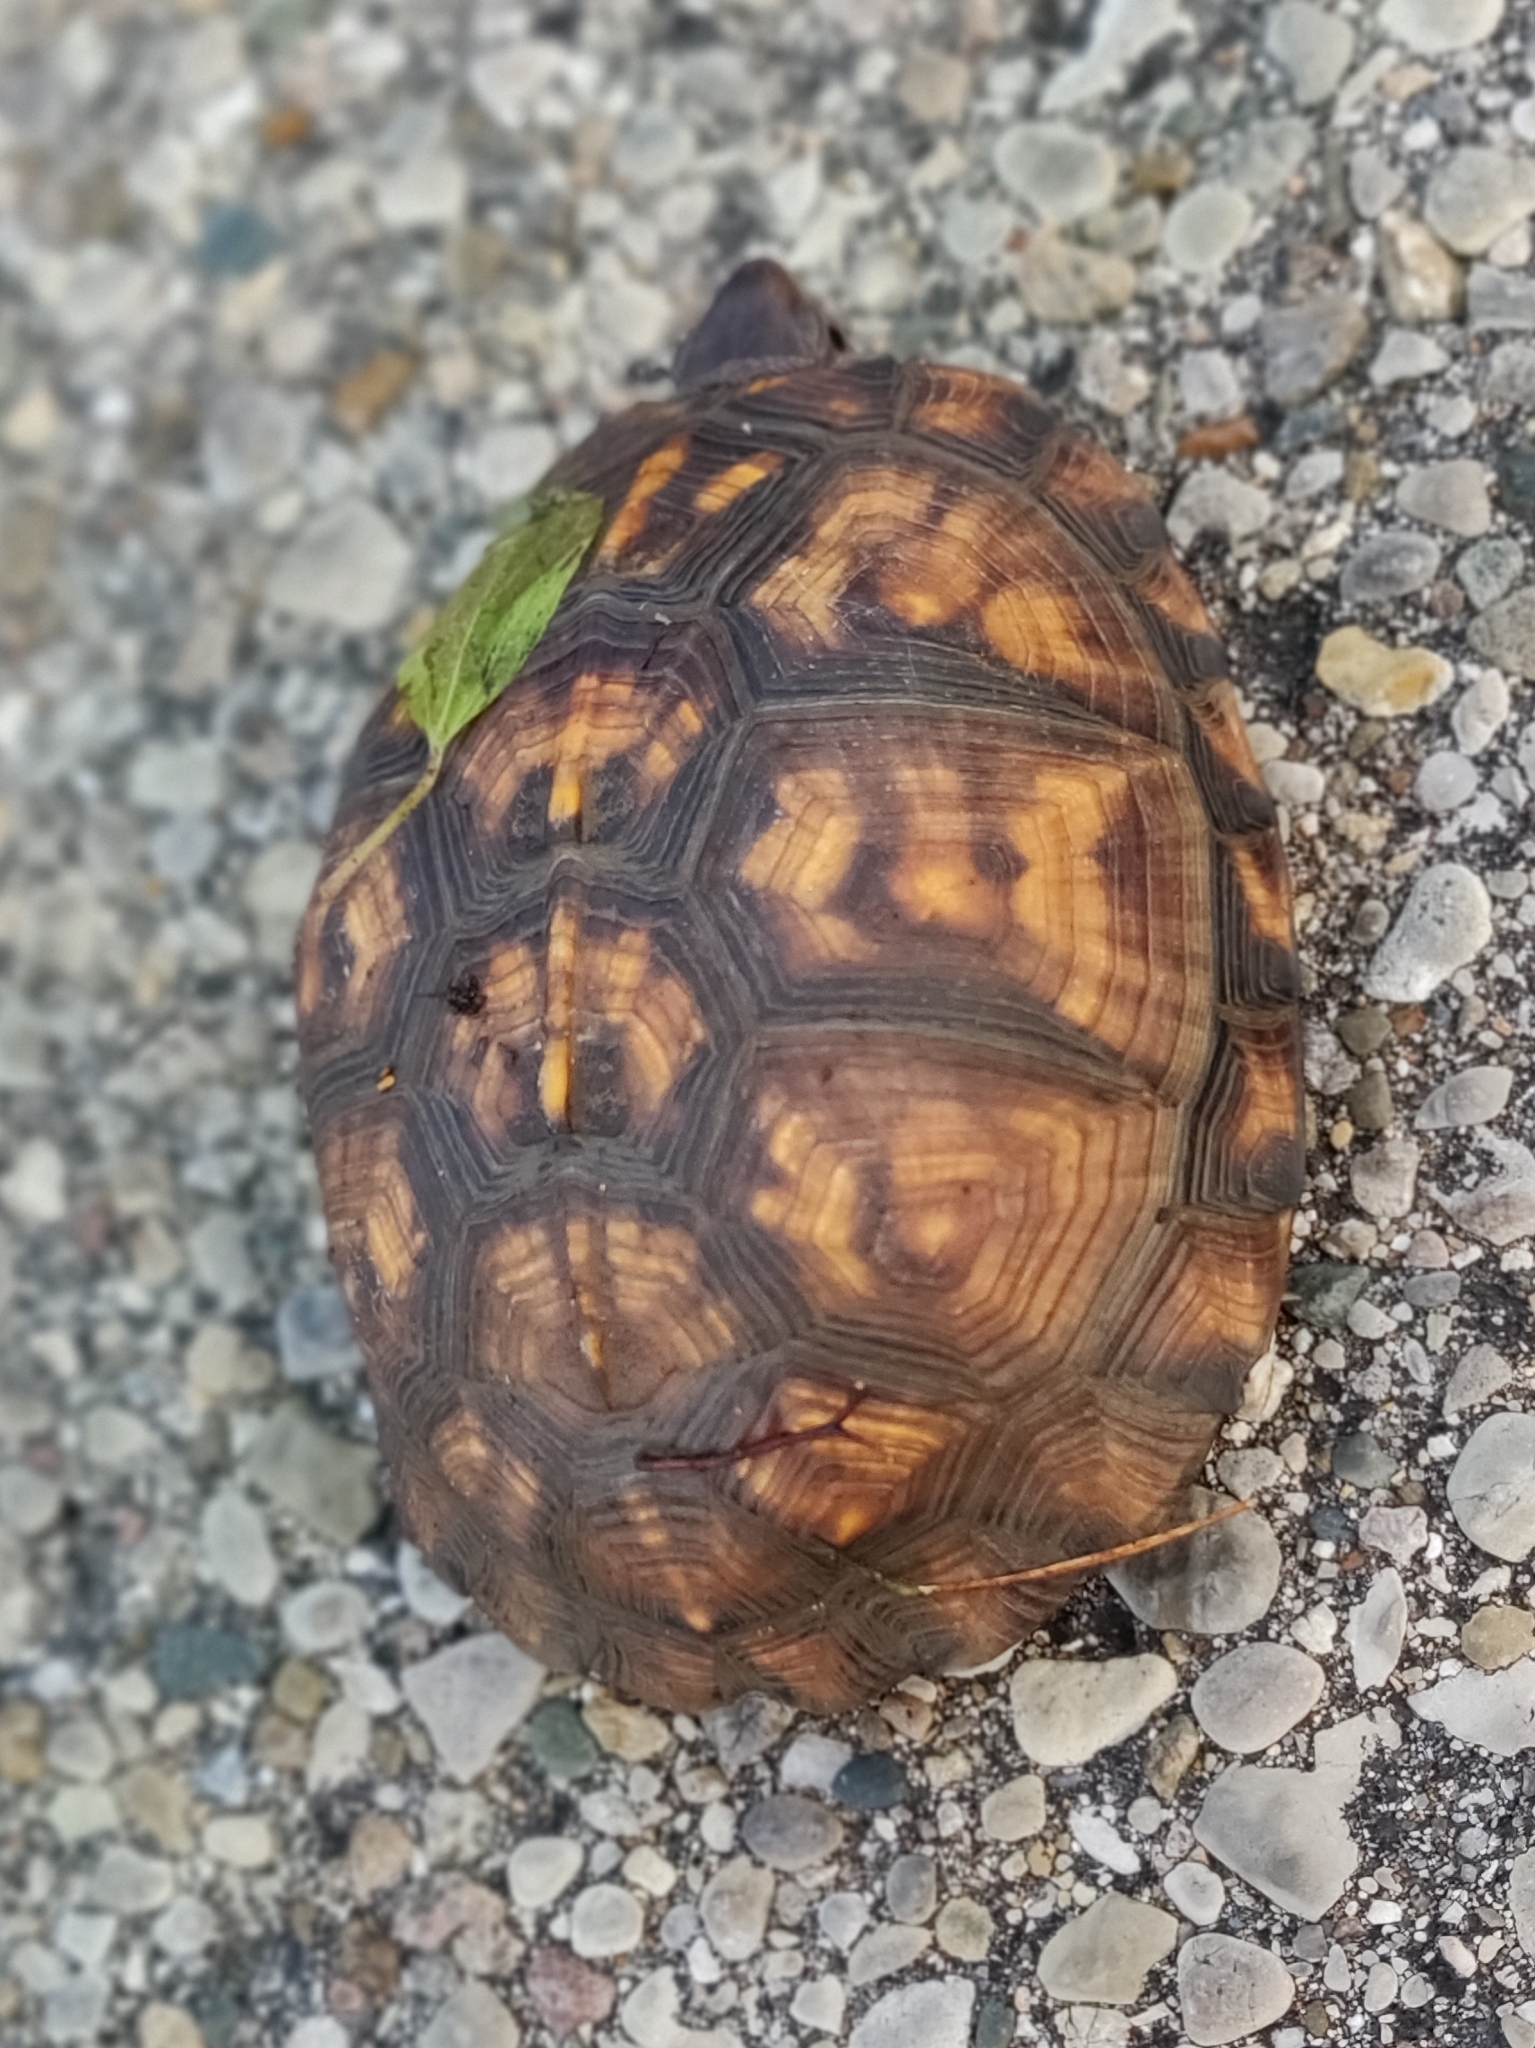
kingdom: Animalia
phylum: Chordata
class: Testudines
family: Emydidae
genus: Terrapene
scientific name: Terrapene carolina
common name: Common box turtle
